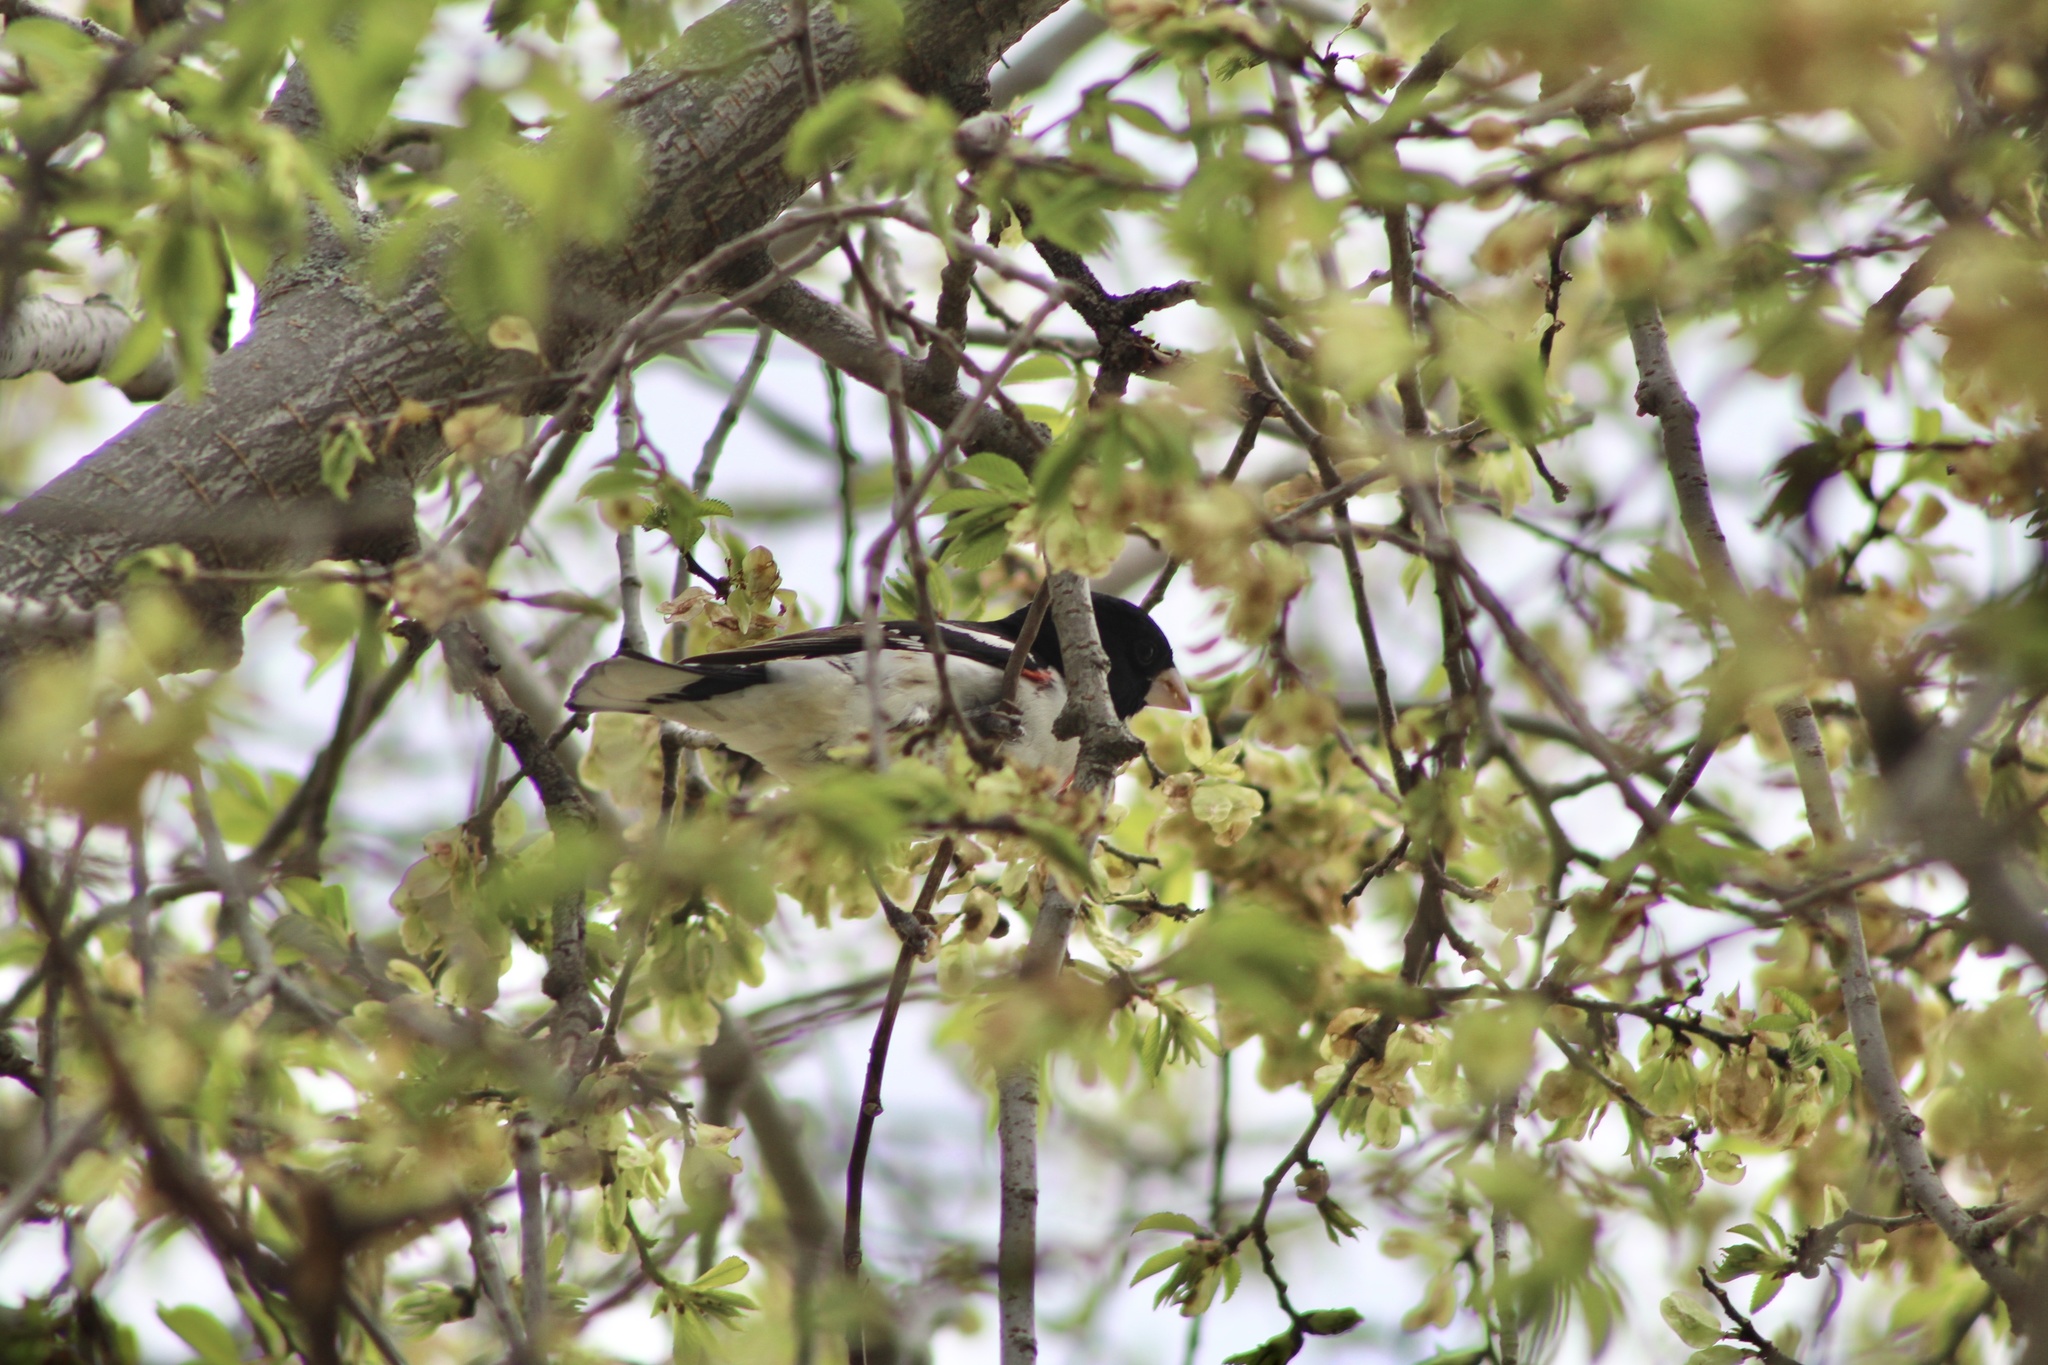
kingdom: Animalia
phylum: Chordata
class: Aves
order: Passeriformes
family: Cardinalidae
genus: Pheucticus
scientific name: Pheucticus ludovicianus
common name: Rose-breasted grosbeak
